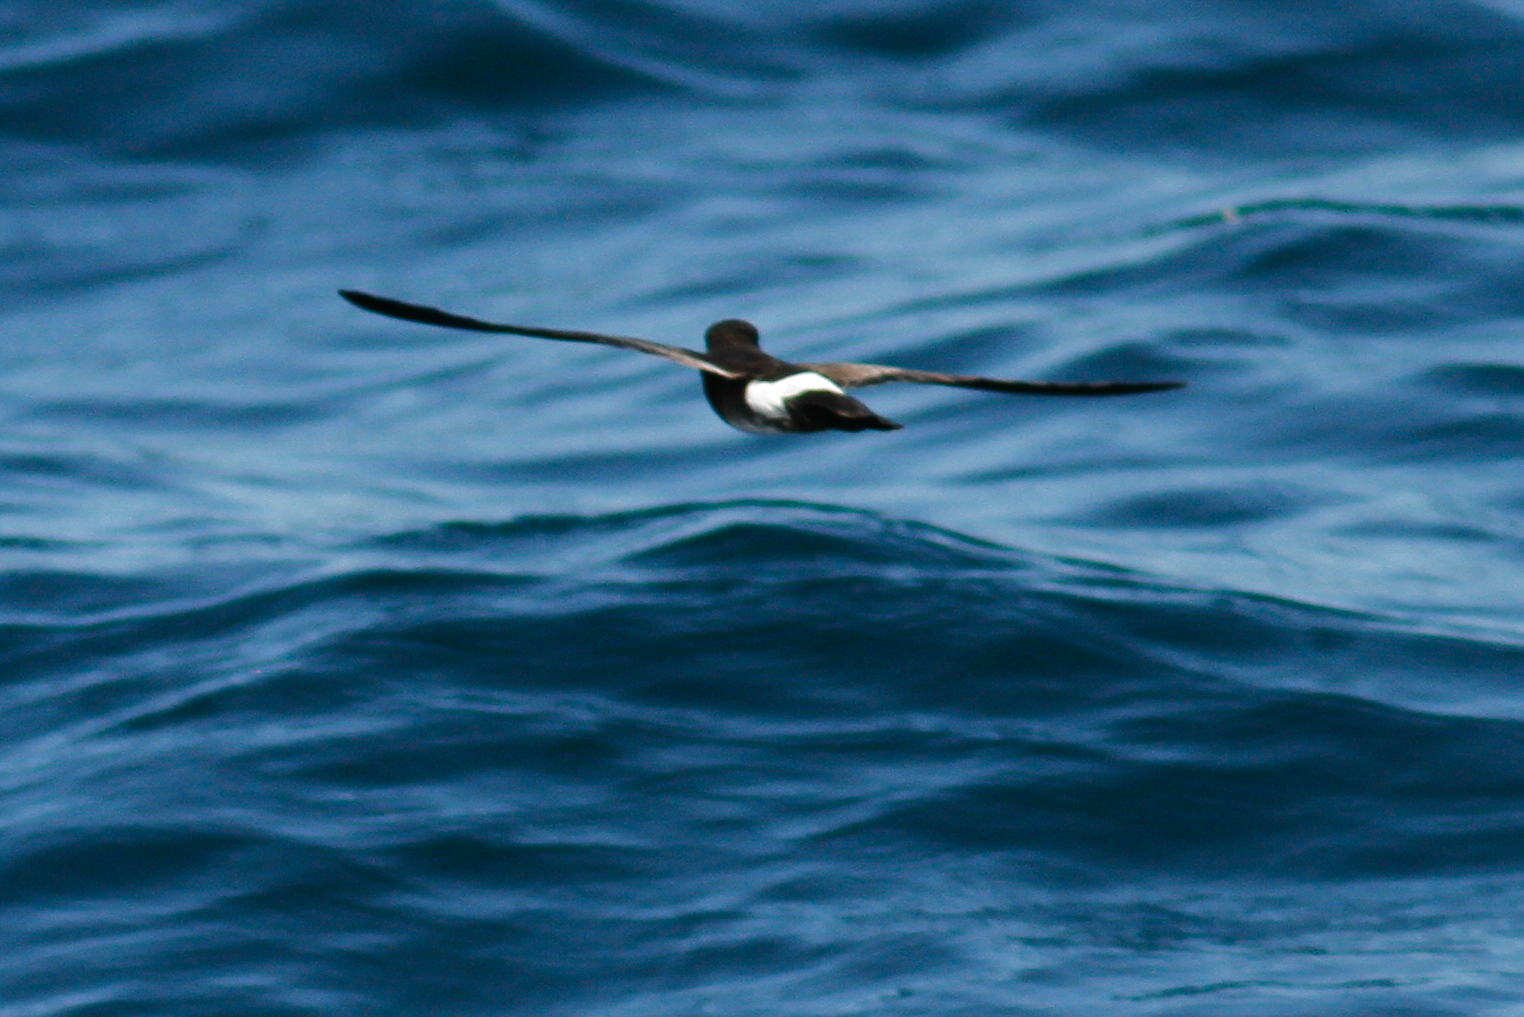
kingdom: Animalia
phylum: Chordata
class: Aves
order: Procellariiformes
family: Hydrobatidae
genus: Oceanites
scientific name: Oceanites gracilis
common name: Elliot's storm-petrel
